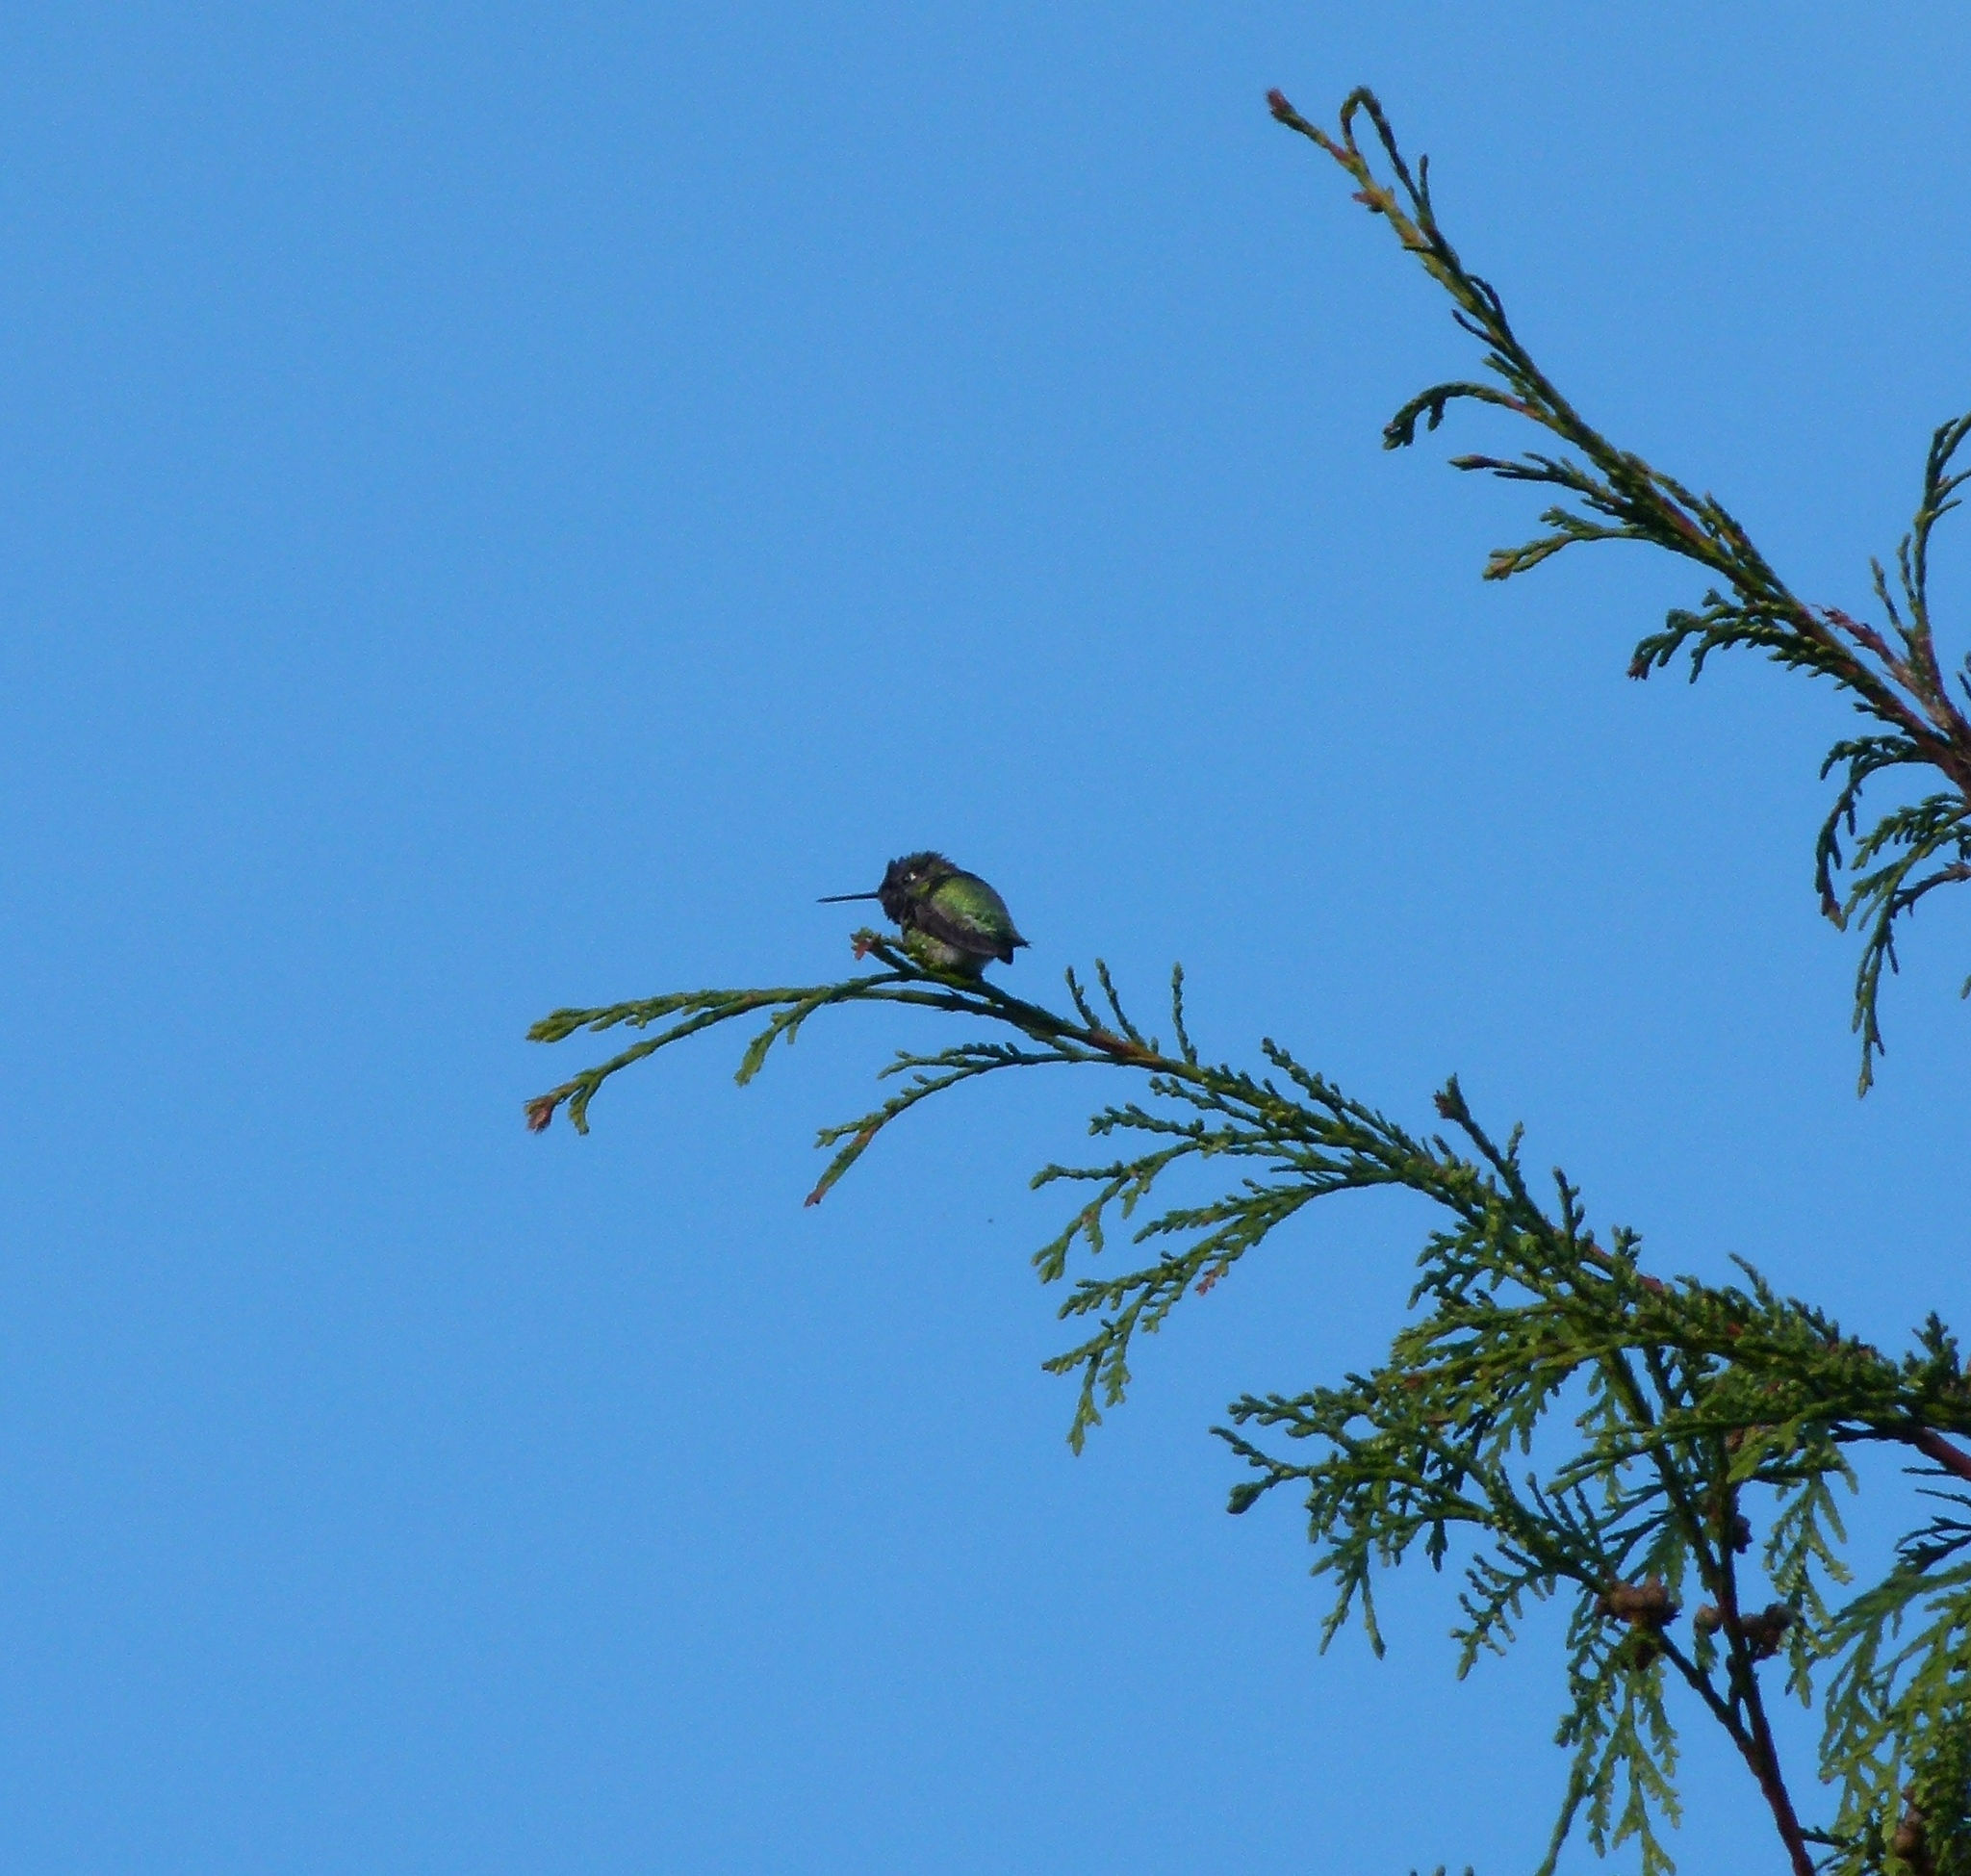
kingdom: Animalia
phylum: Chordata
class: Aves
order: Apodiformes
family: Trochilidae
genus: Calypte
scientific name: Calypte anna
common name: Anna's hummingbird
